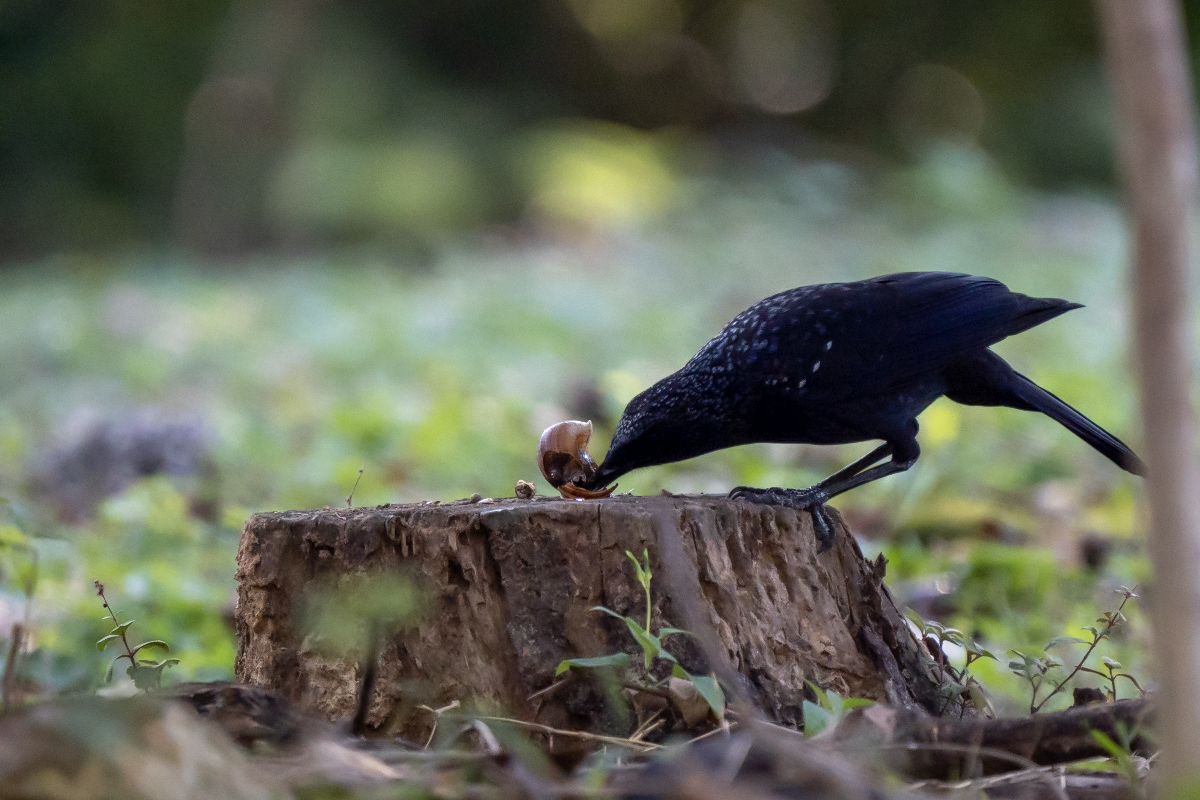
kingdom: Animalia
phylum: Chordata
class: Aves
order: Passeriformes
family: Muscicapidae
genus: Myophonus
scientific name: Myophonus caeruleus
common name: Blue whistling-thrush
